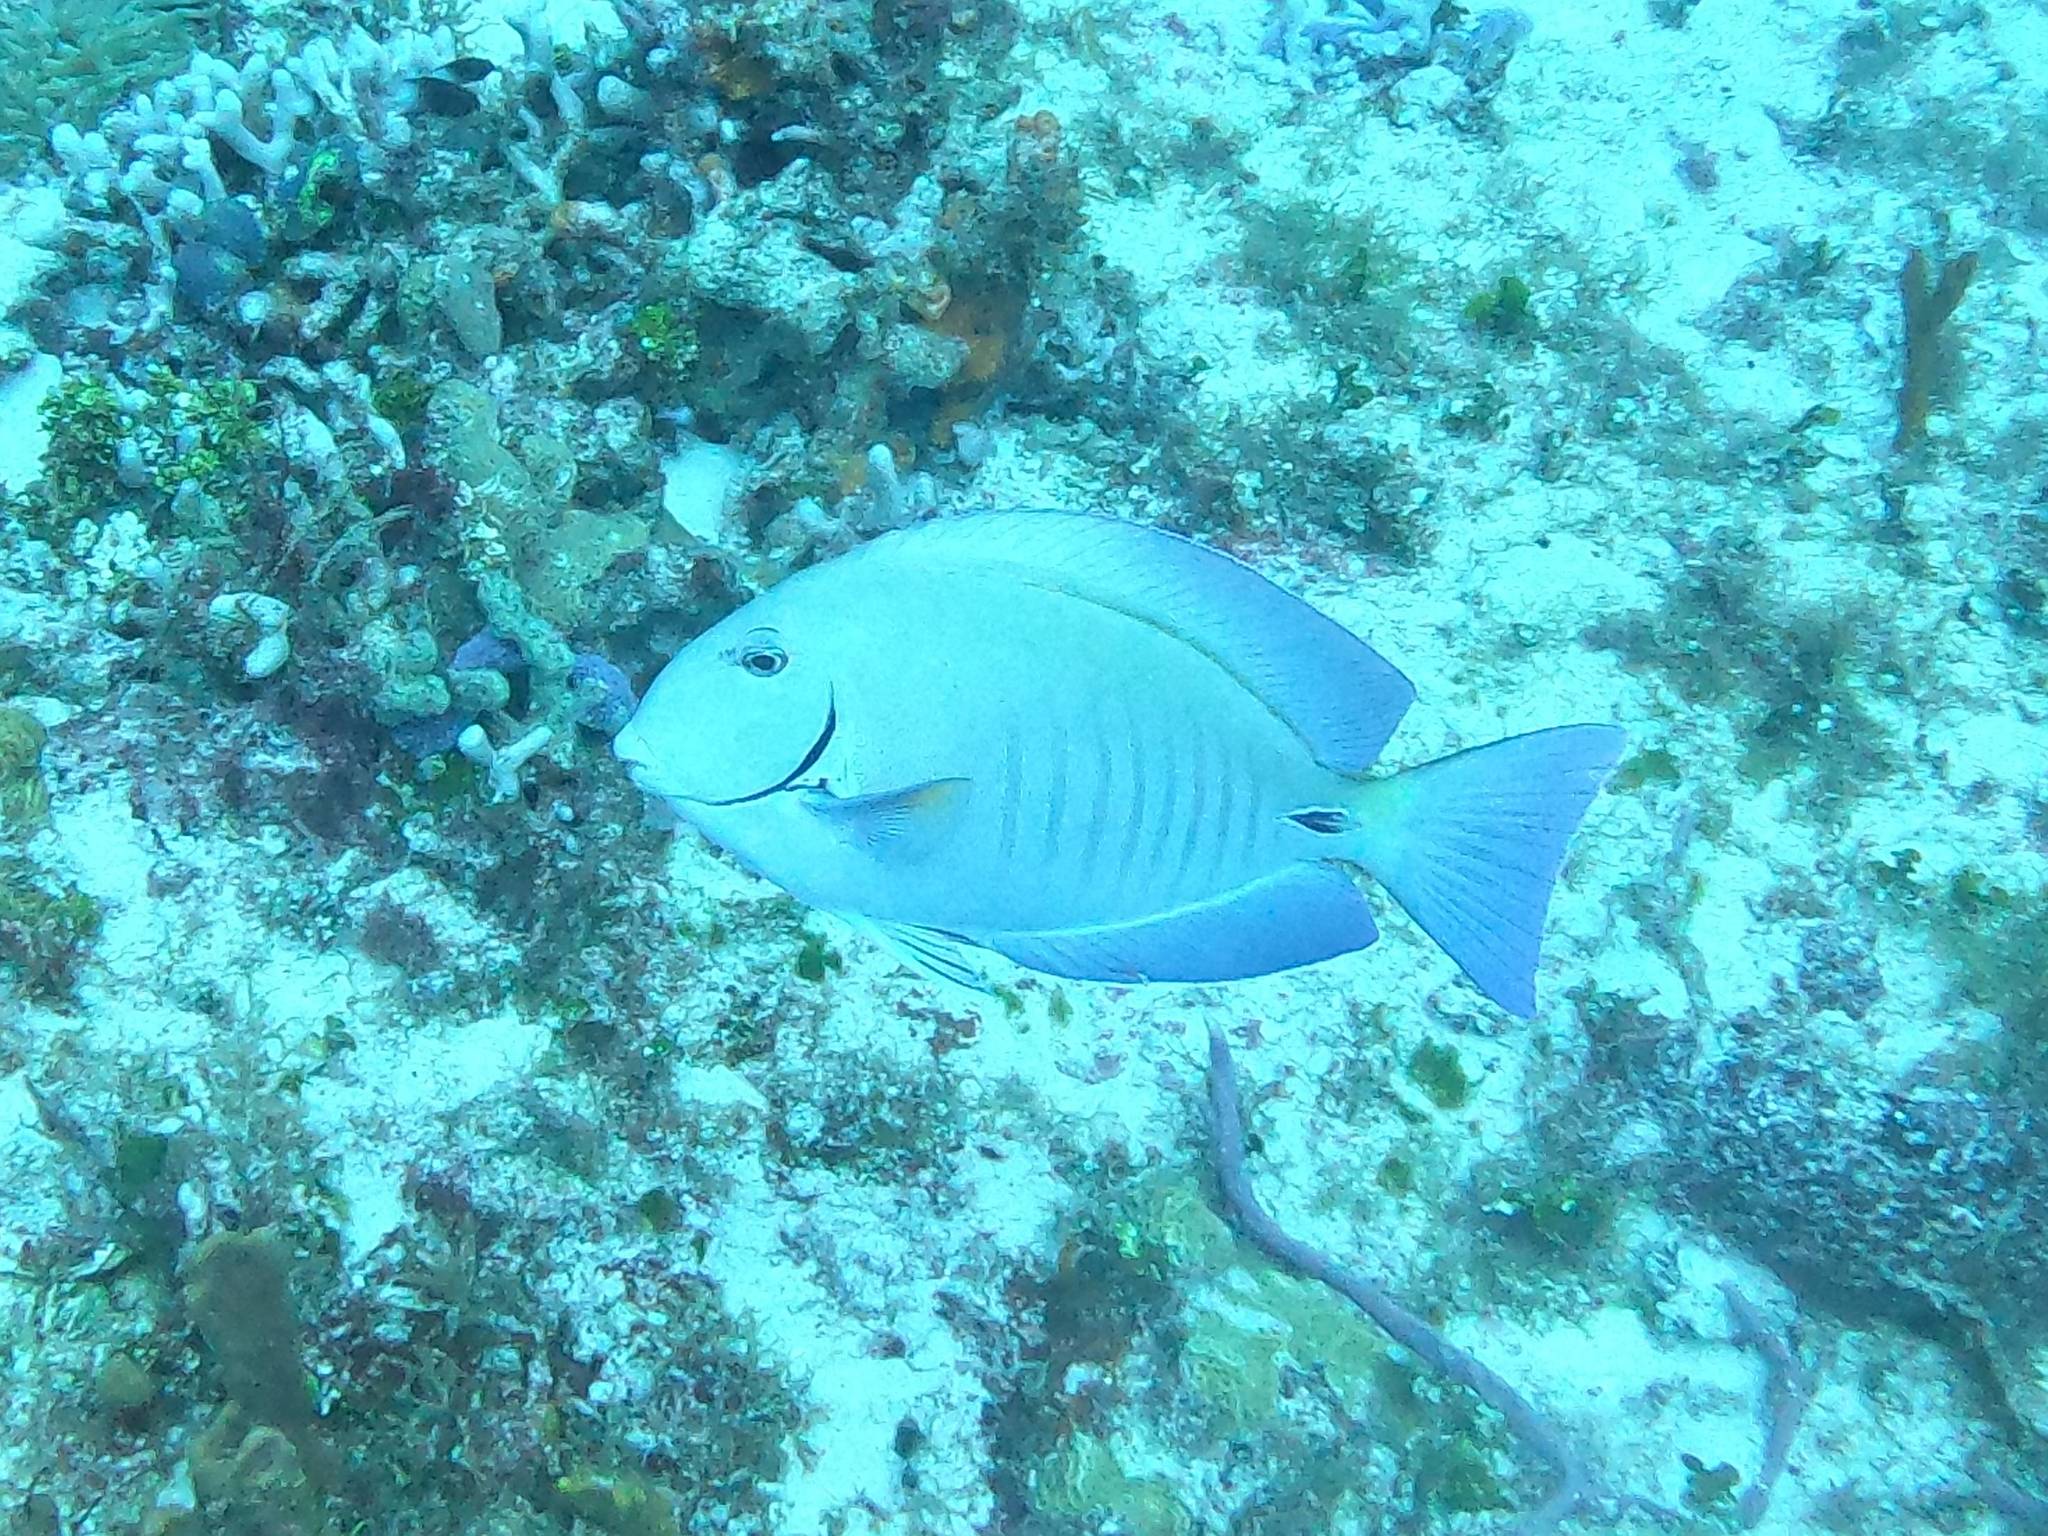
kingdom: Animalia
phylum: Chordata
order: Perciformes
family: Acanthuridae
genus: Acanthurus
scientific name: Acanthurus chirurgus
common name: Doctorfish
